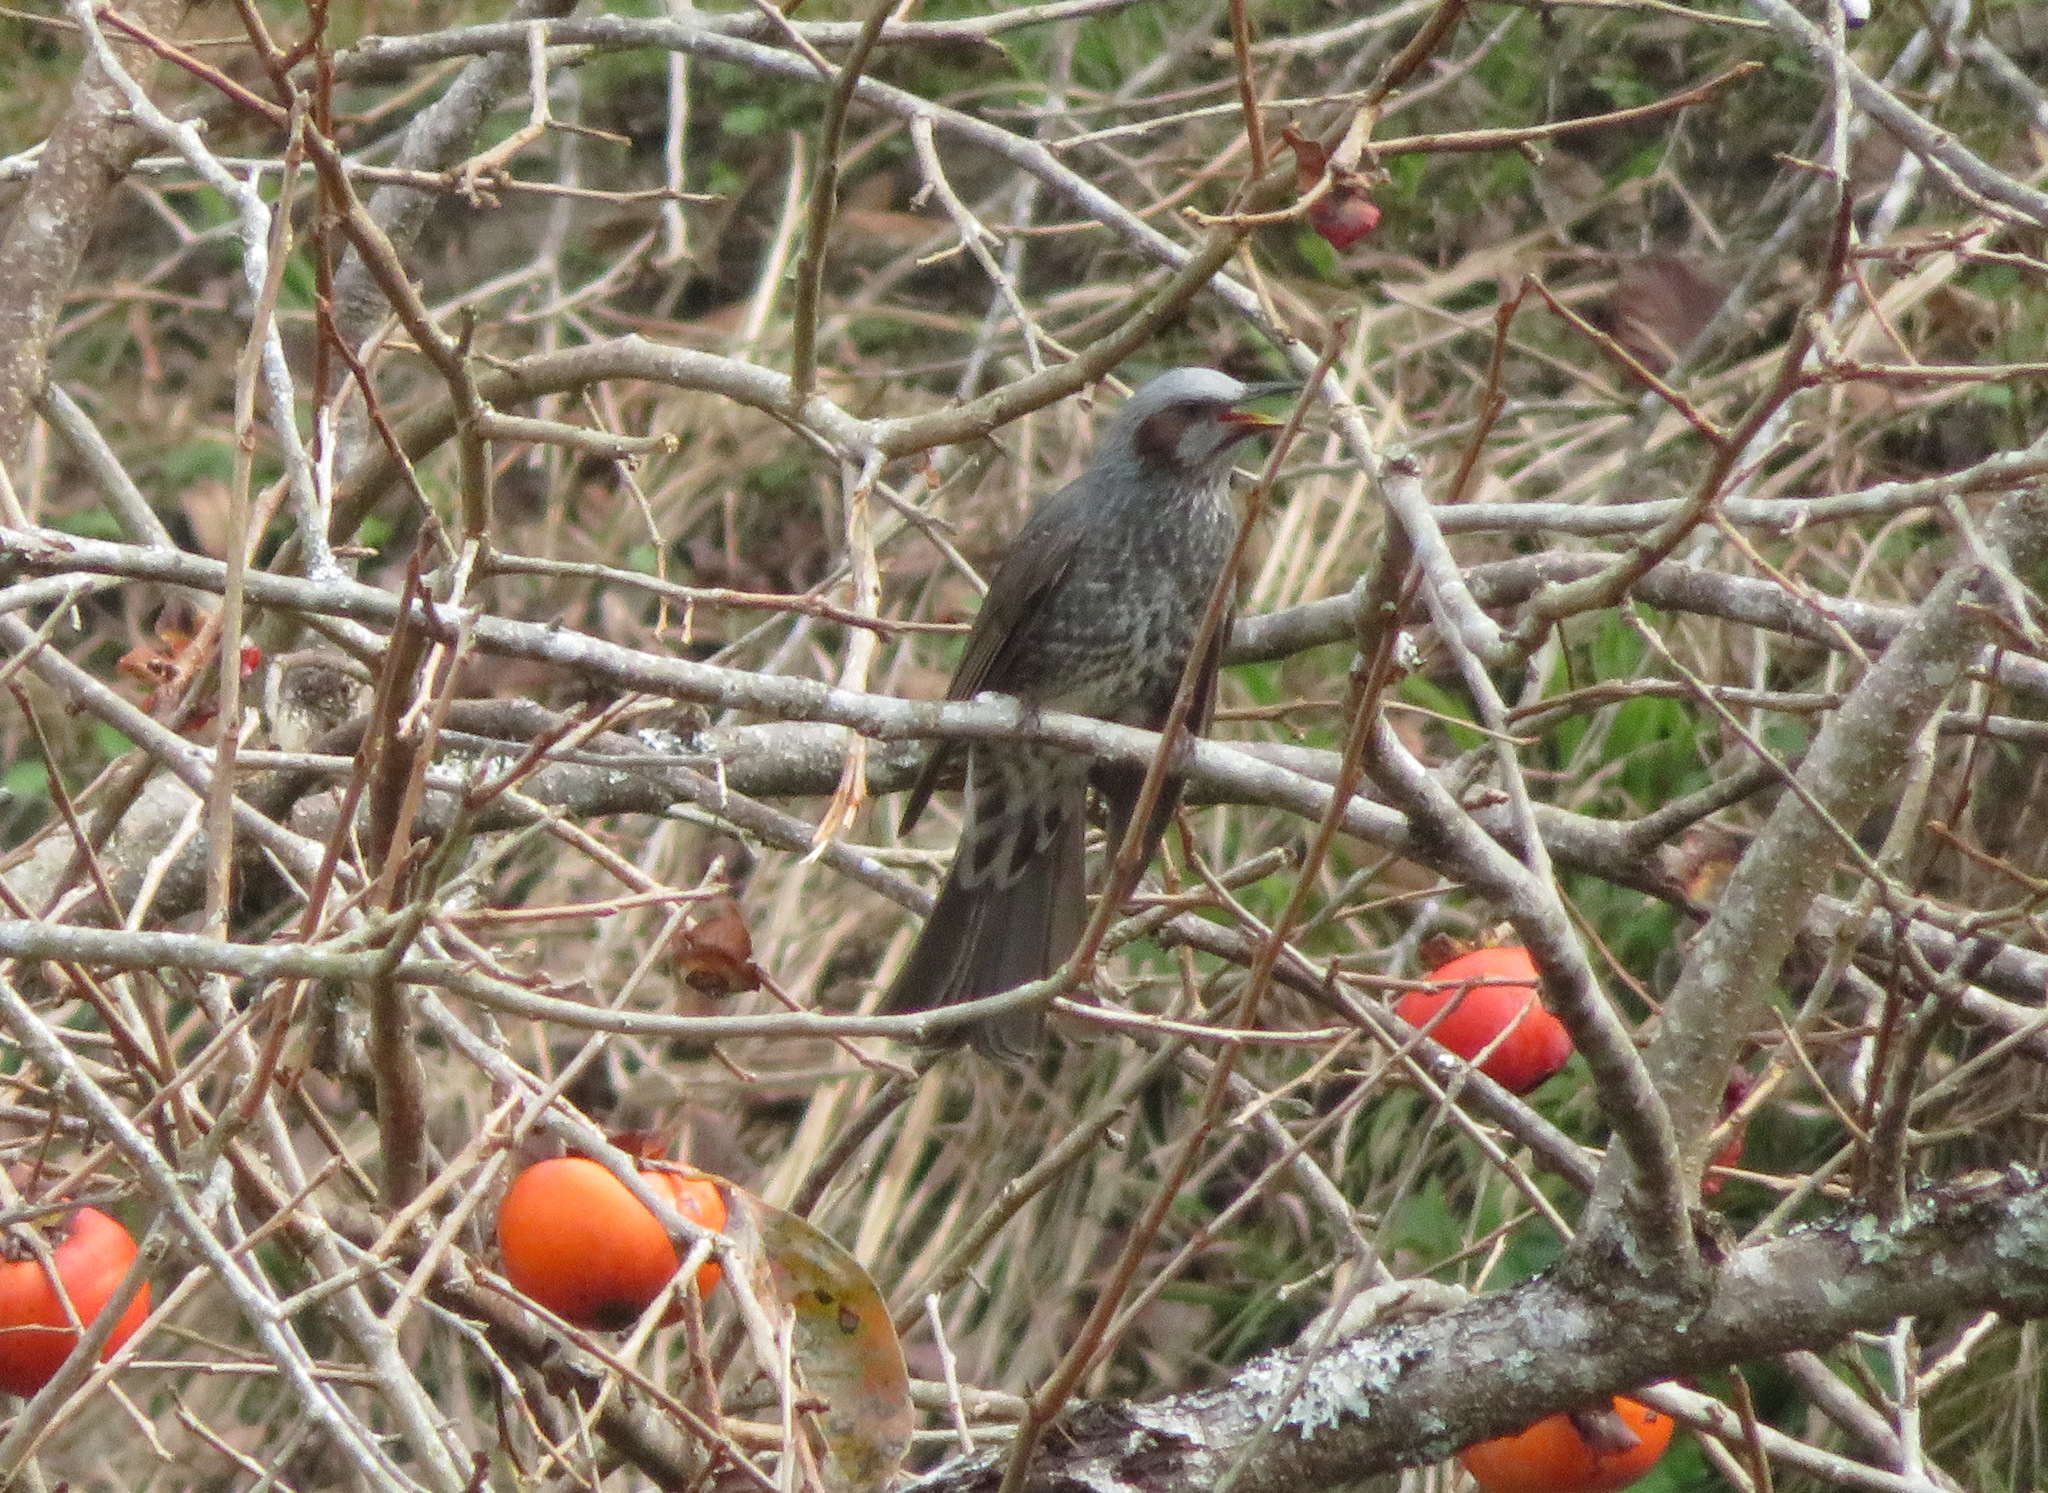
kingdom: Animalia
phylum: Chordata
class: Aves
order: Passeriformes
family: Pycnonotidae
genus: Hypsipetes
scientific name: Hypsipetes amaurotis
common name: Brown-eared bulbul
